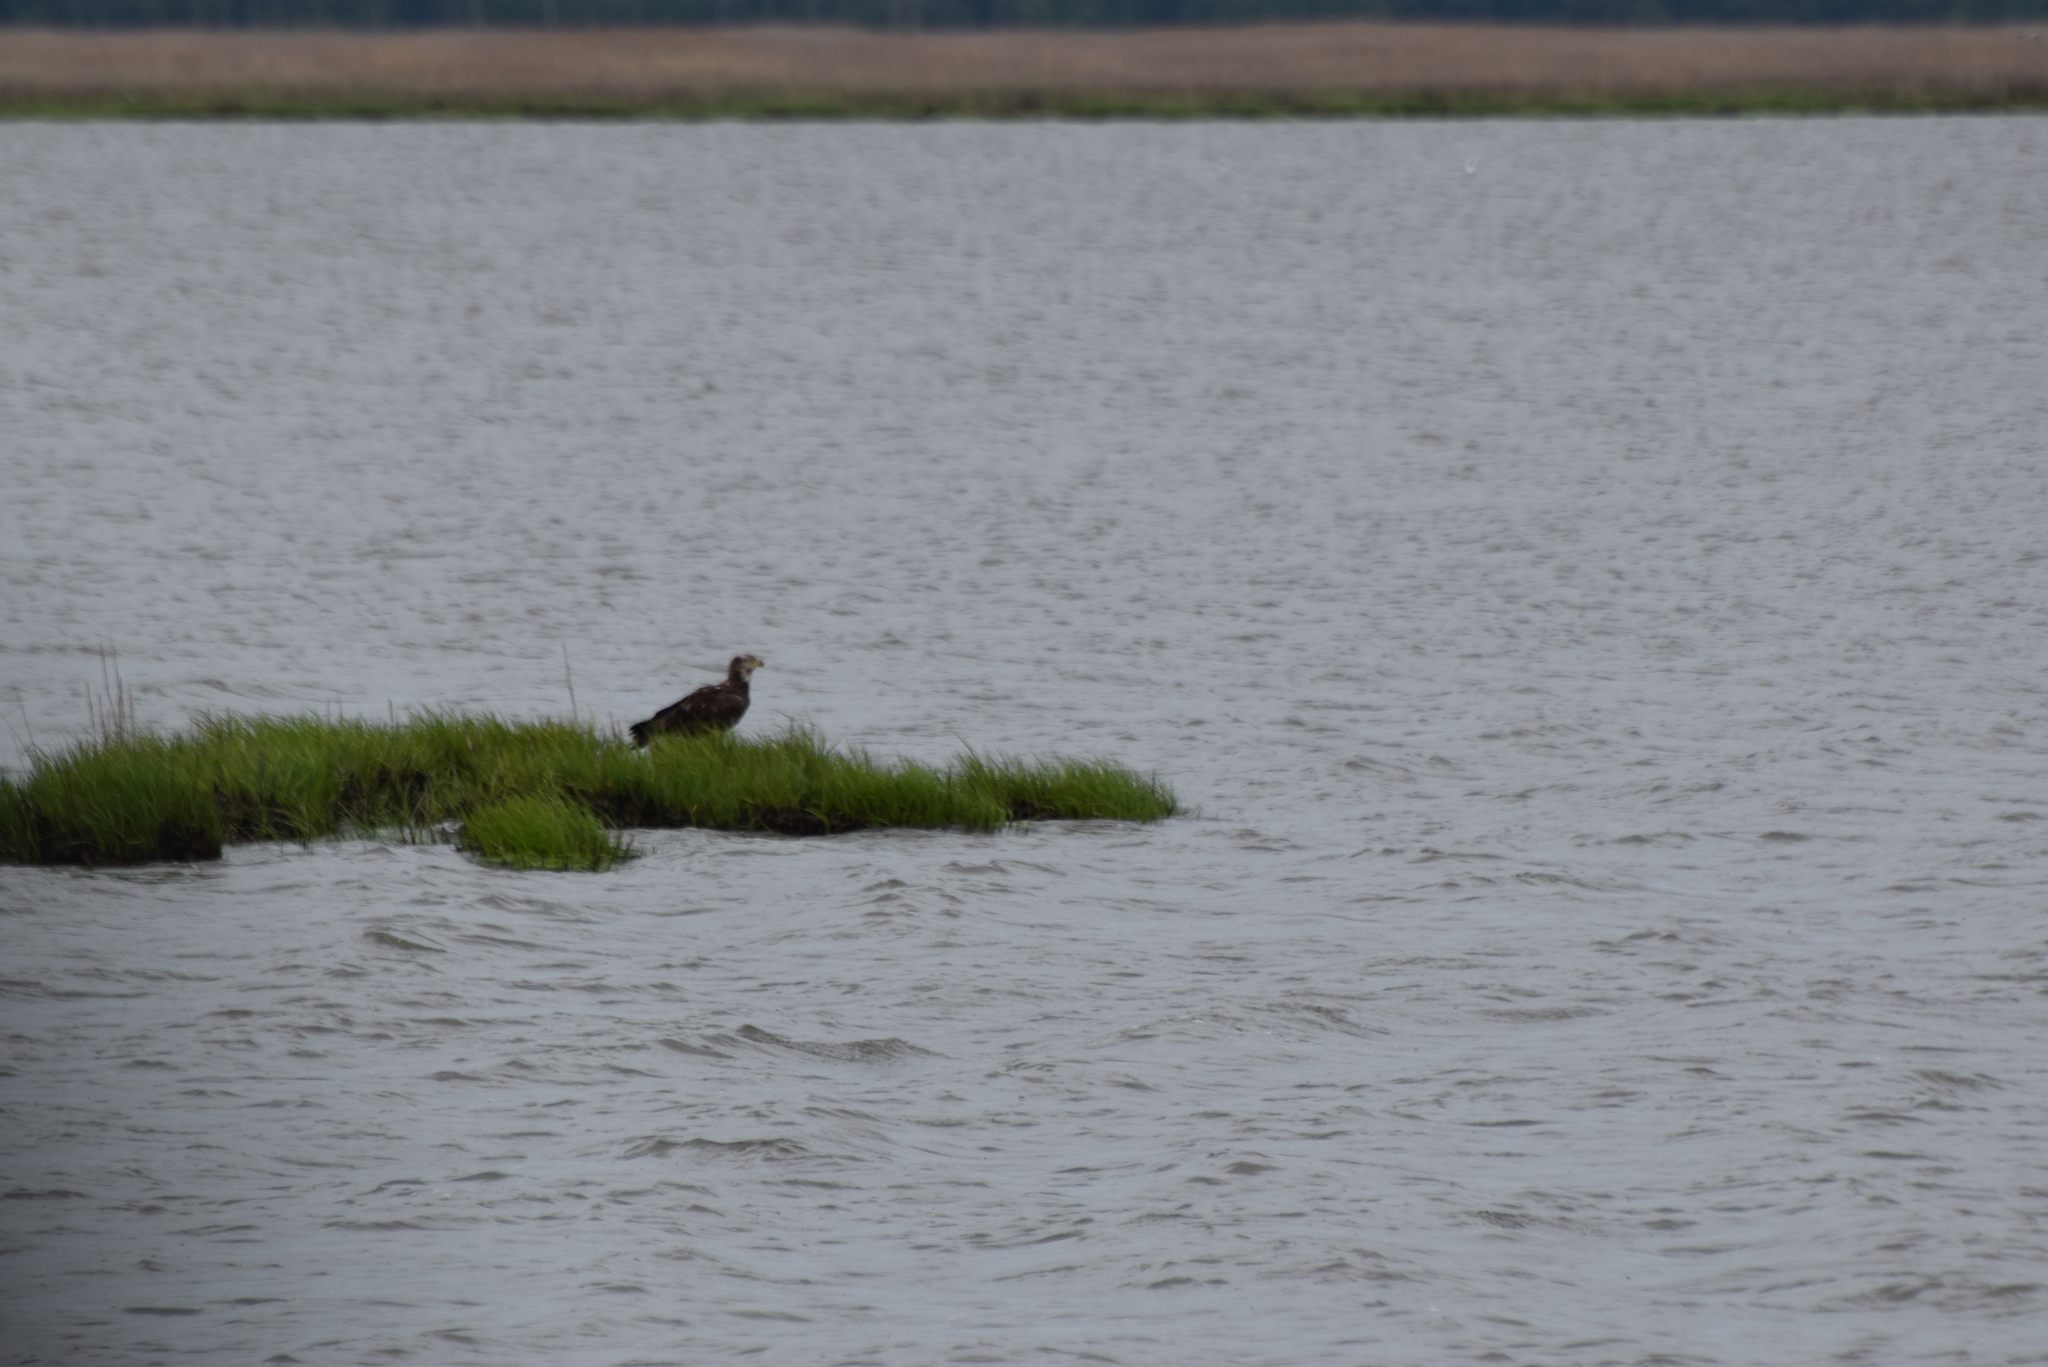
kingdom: Animalia
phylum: Chordata
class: Aves
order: Accipitriformes
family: Accipitridae
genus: Haliaeetus
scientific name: Haliaeetus leucocephalus
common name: Bald eagle
